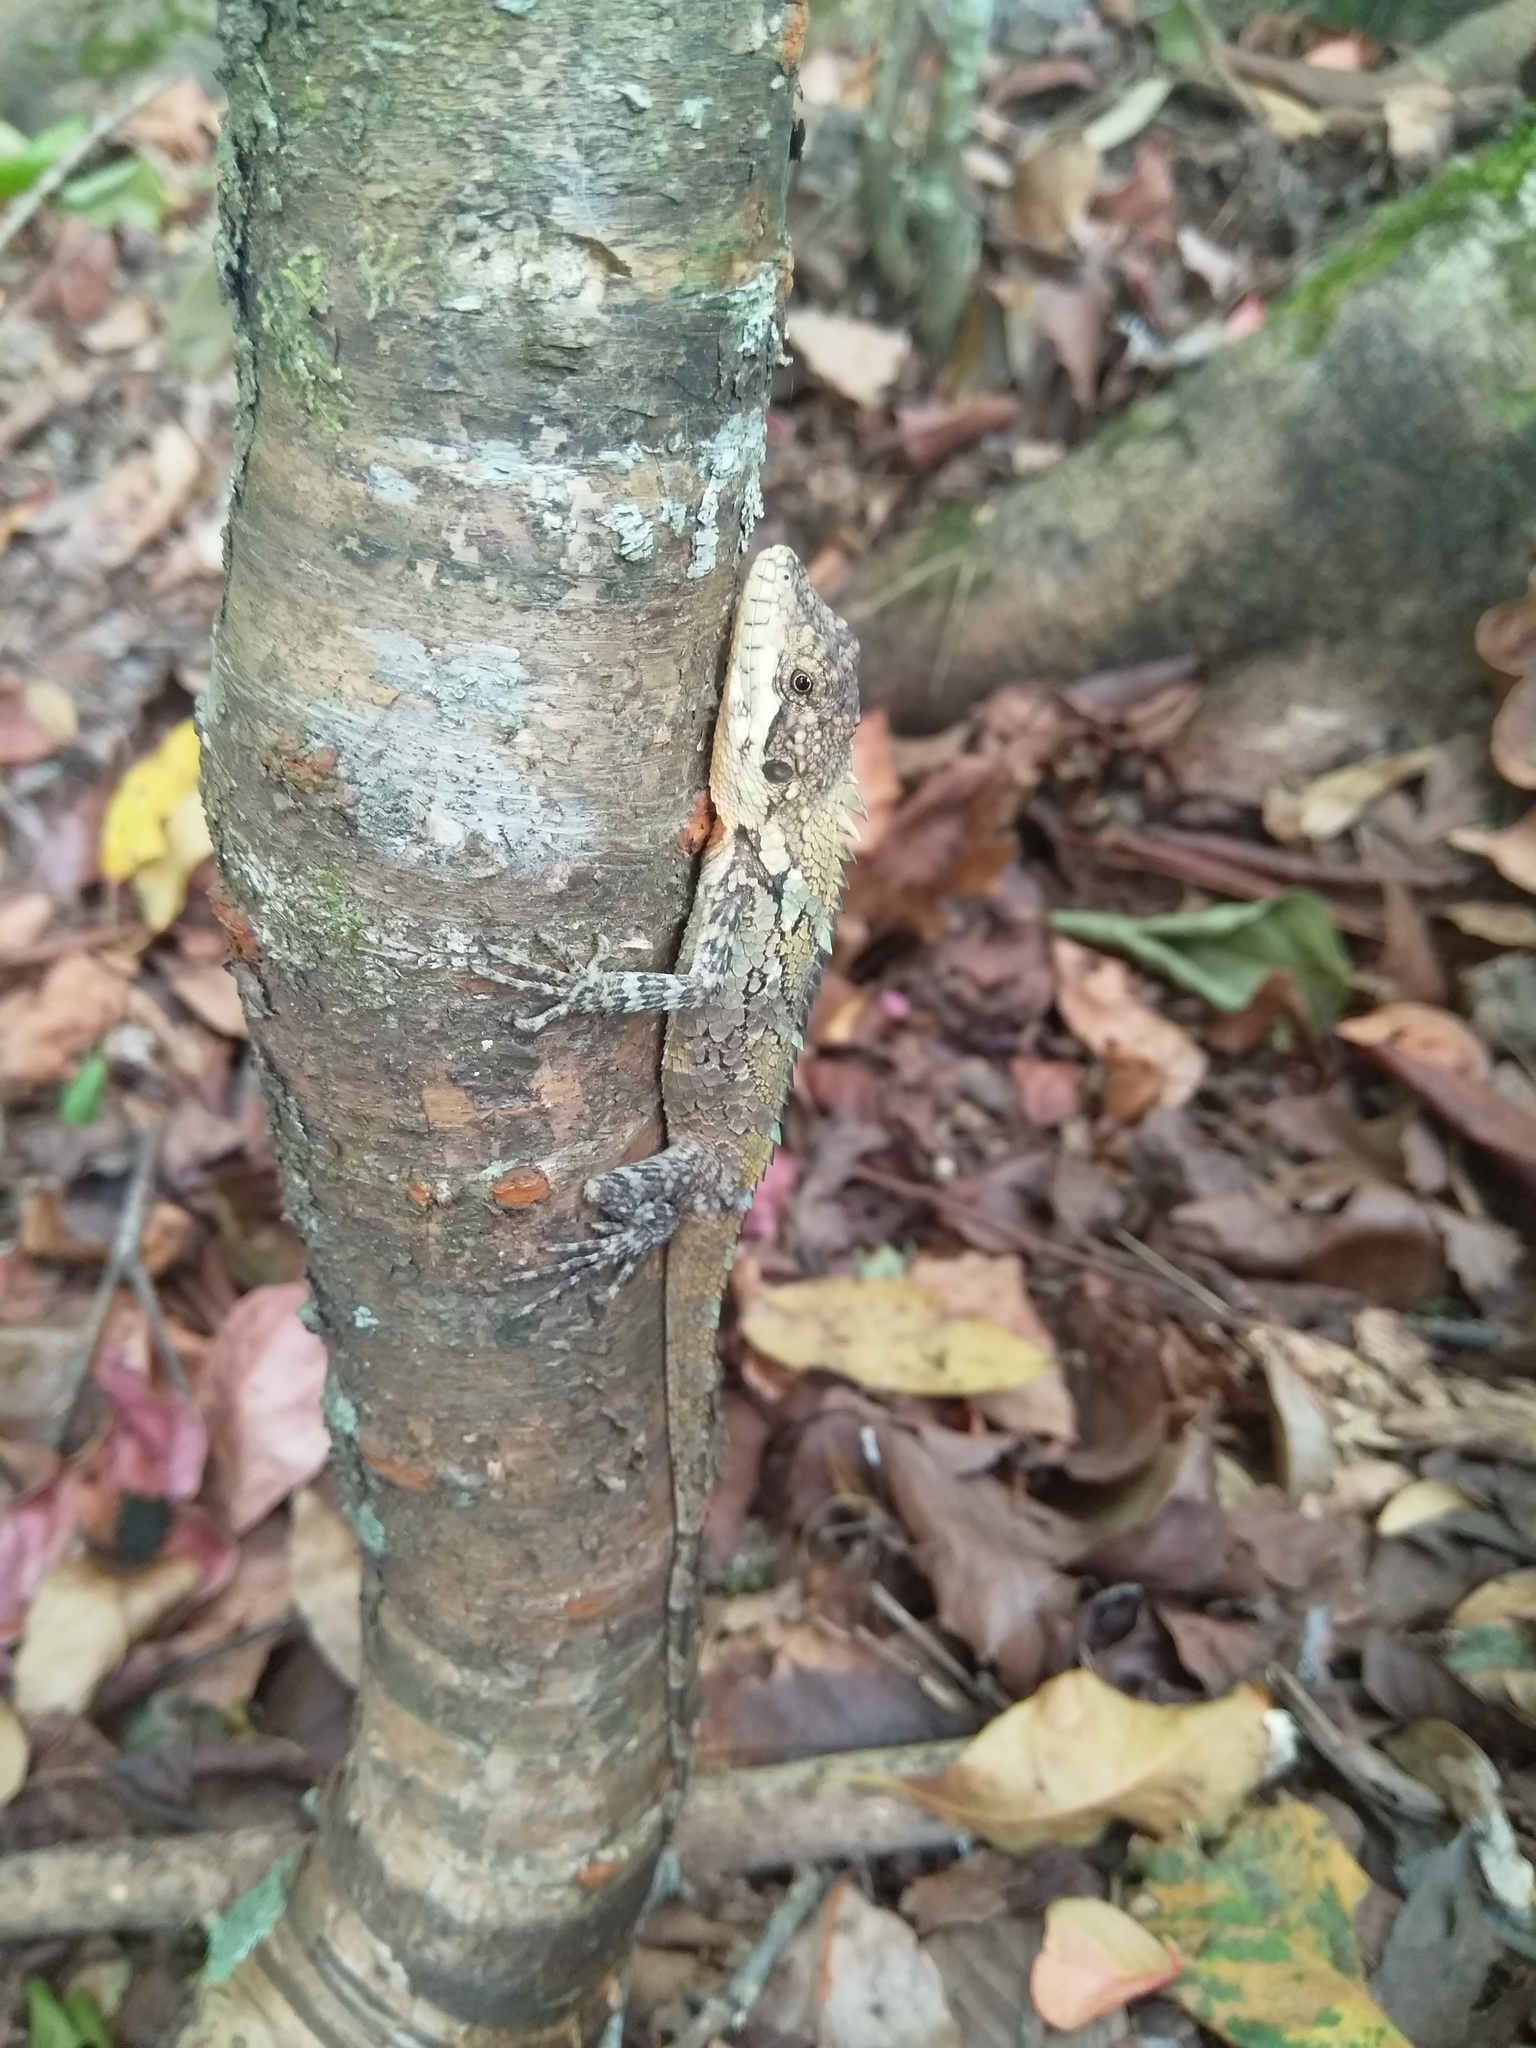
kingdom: Animalia
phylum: Chordata
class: Squamata
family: Agamidae
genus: Salea
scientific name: Salea anamallayana
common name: Anaimalai spiny lizard
